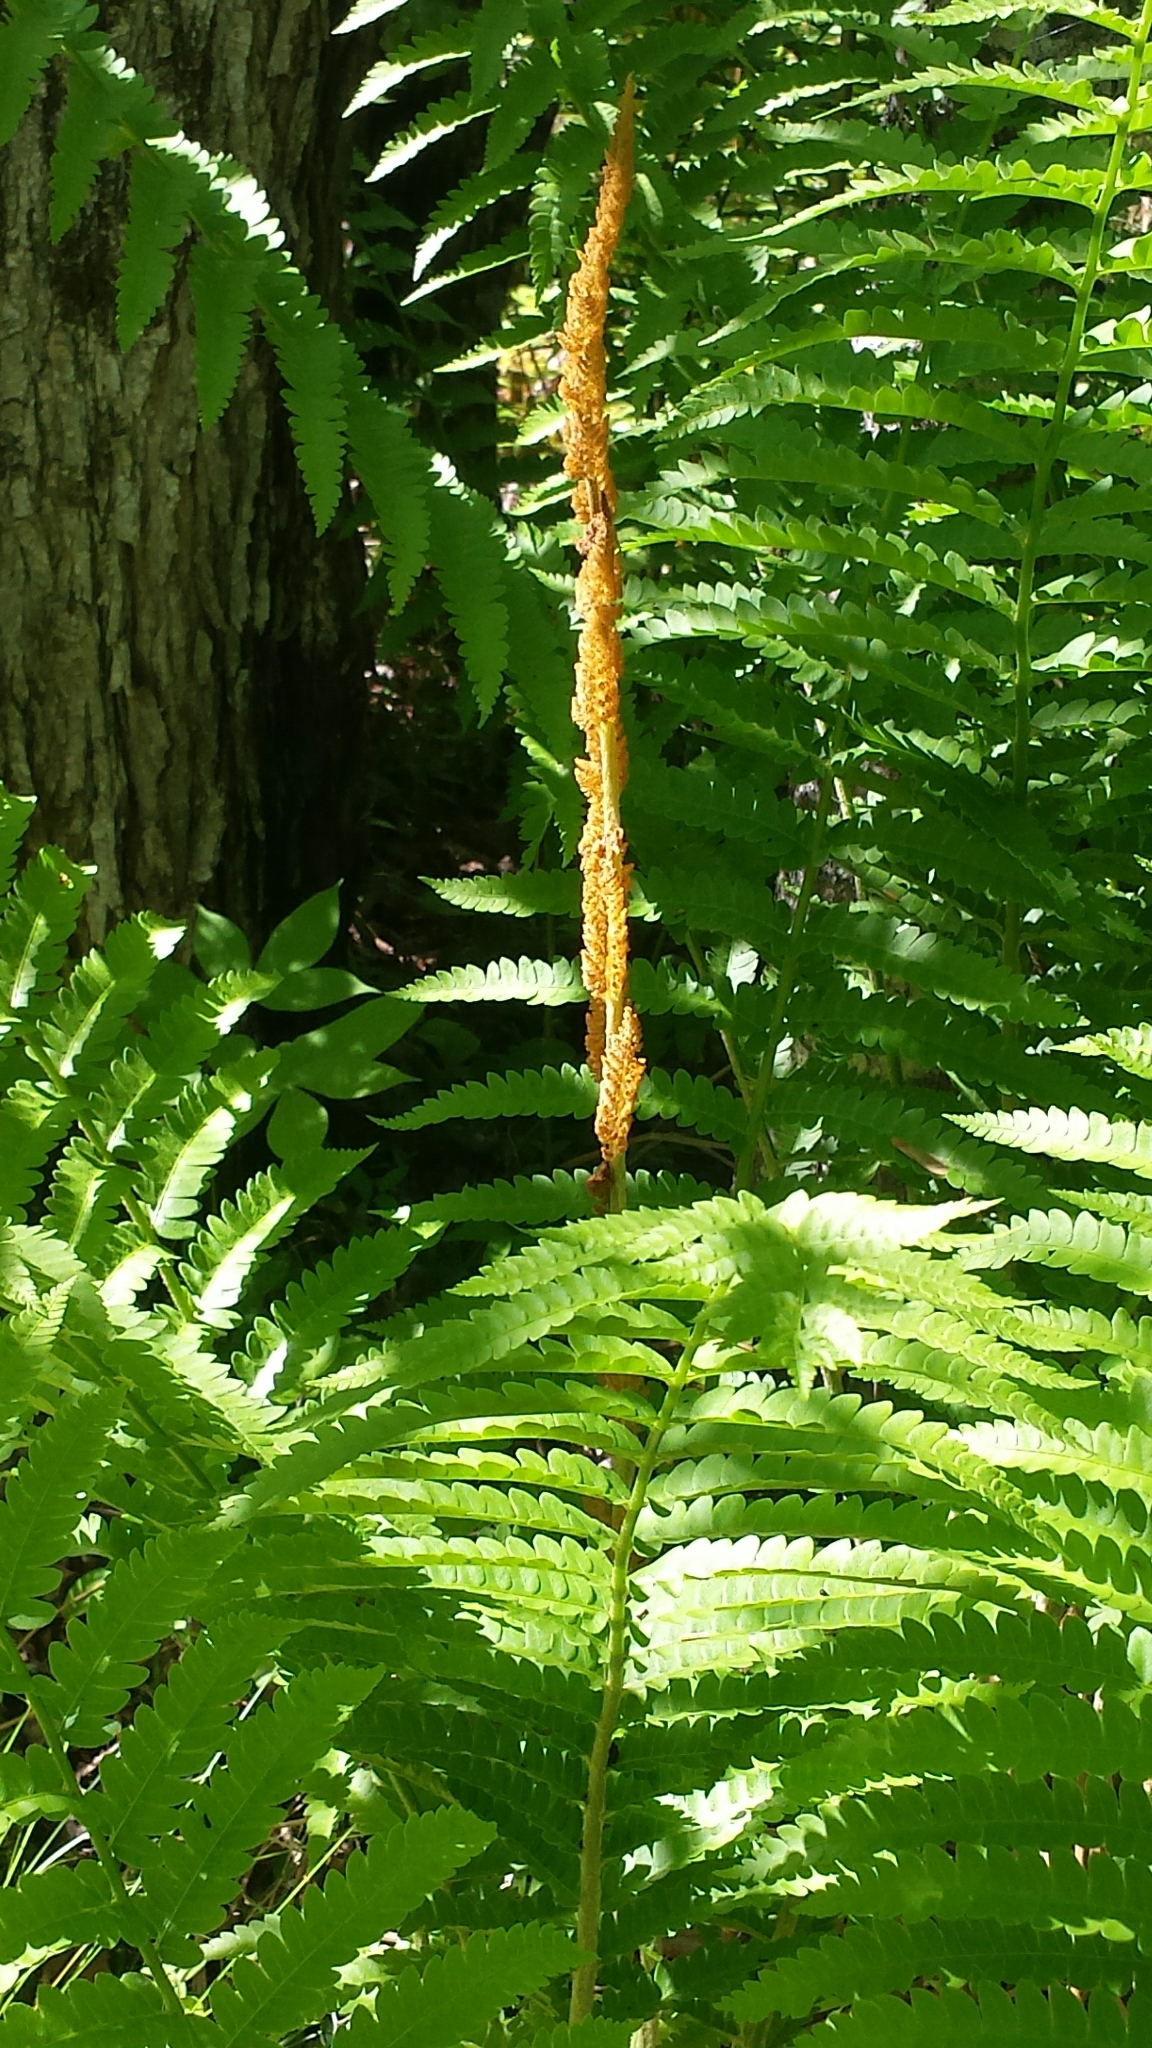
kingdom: Plantae
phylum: Tracheophyta
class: Polypodiopsida
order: Osmundales
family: Osmundaceae
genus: Osmundastrum
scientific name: Osmundastrum cinnamomeum
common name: Cinnamon fern
